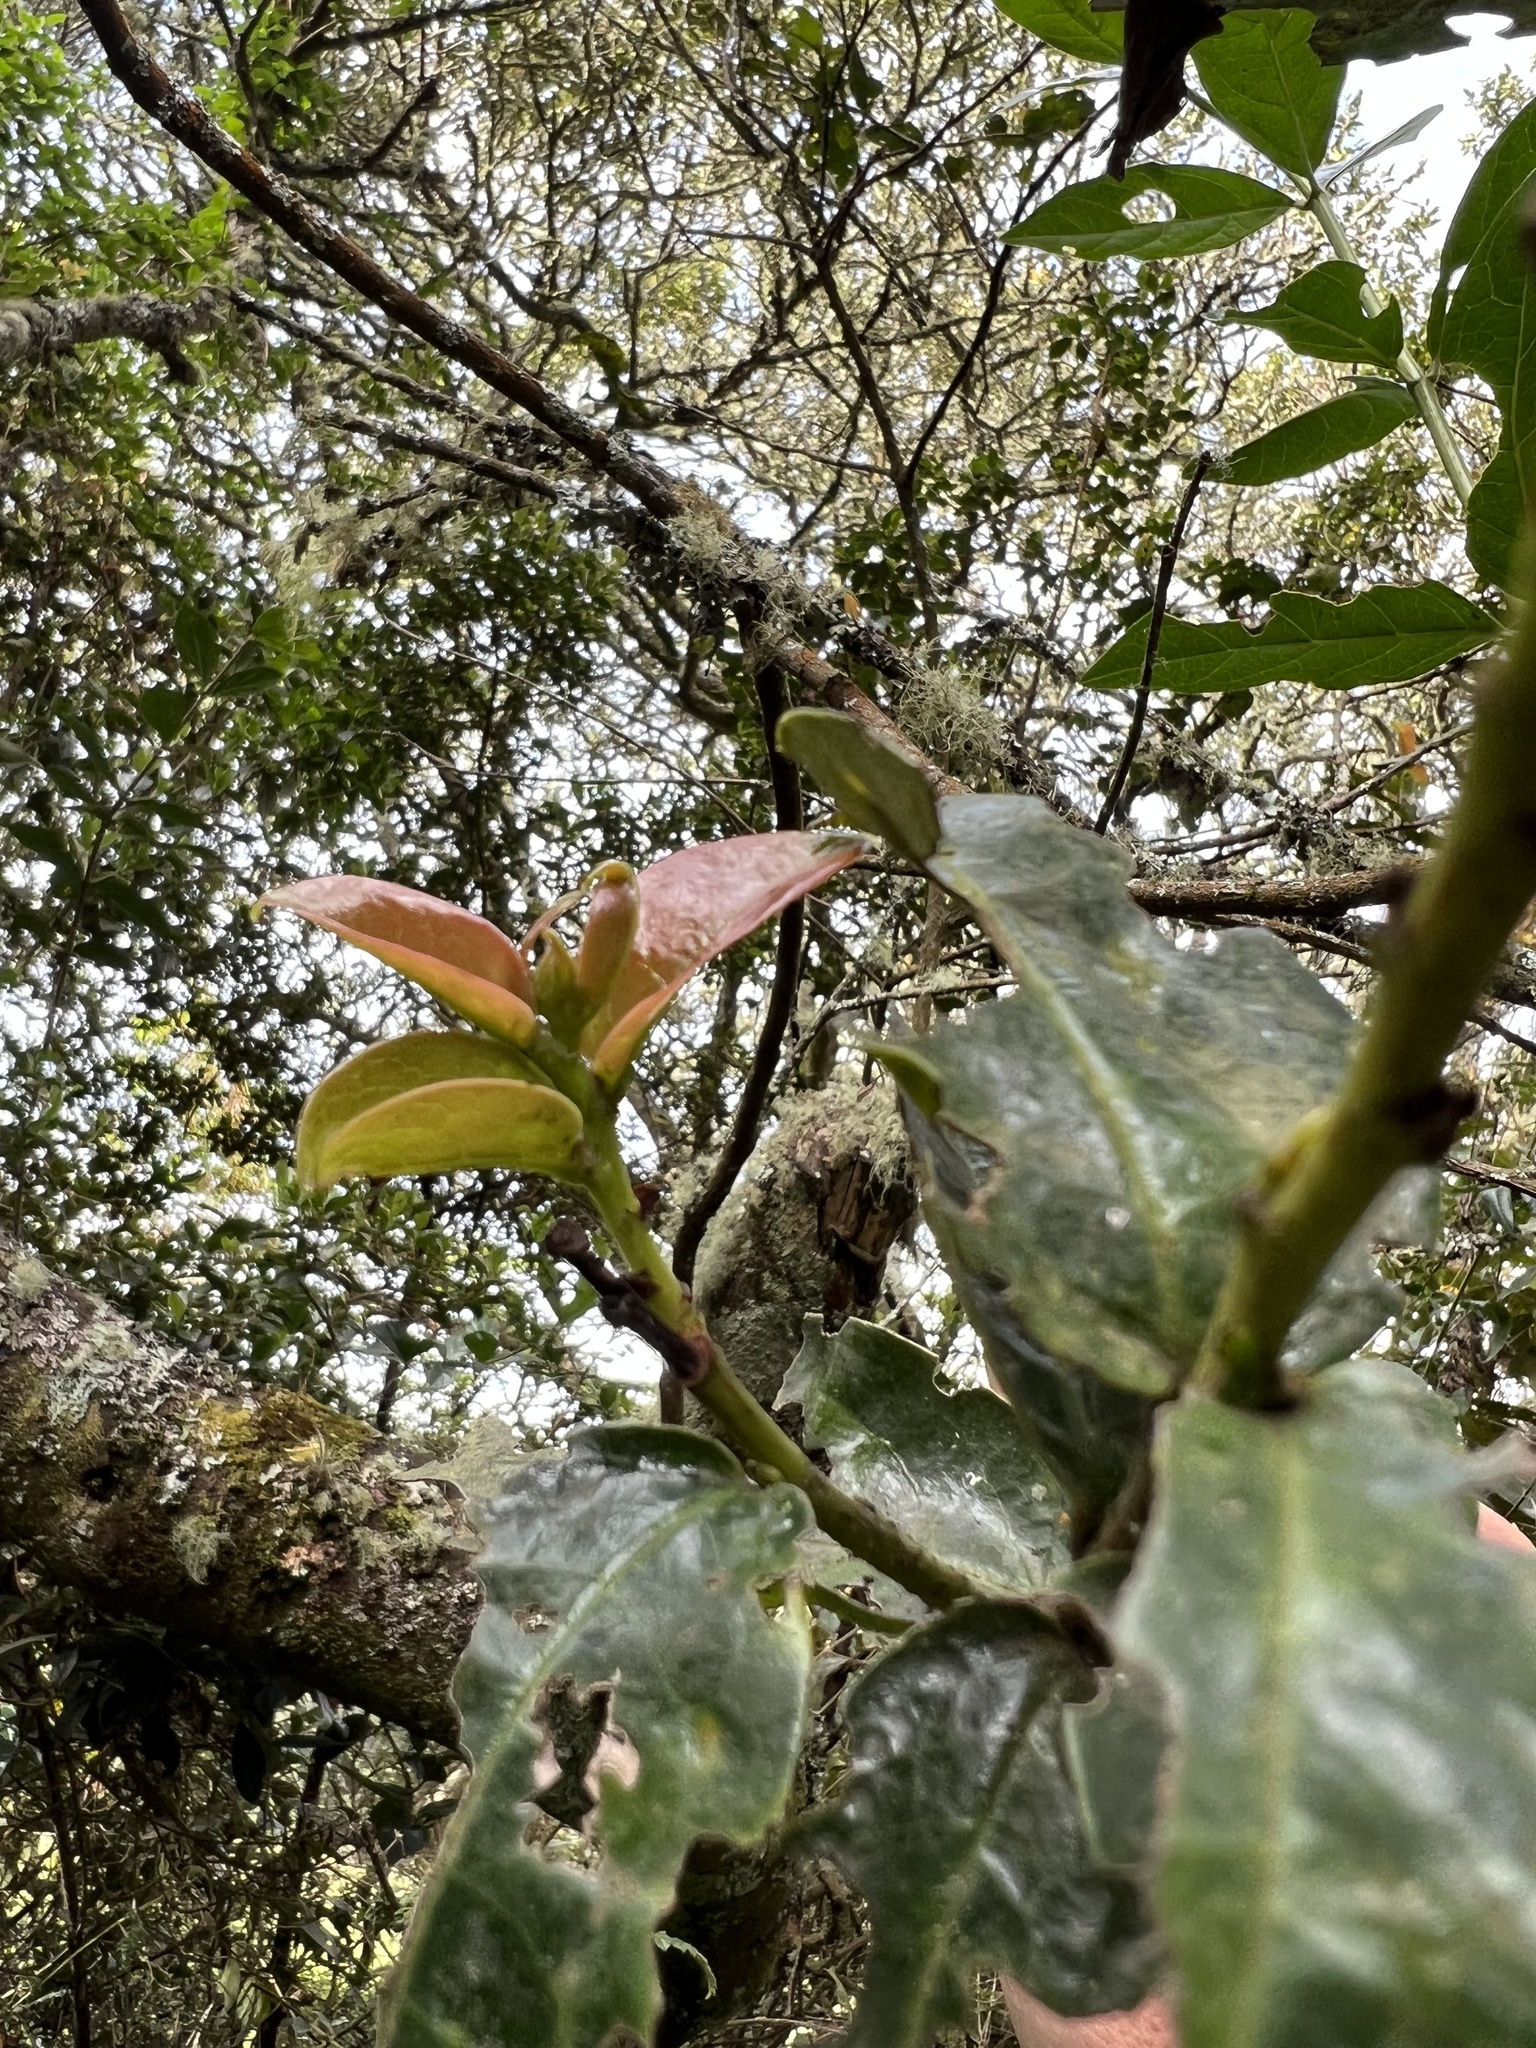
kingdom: Plantae
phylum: Tracheophyta
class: Magnoliopsida
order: Rosales
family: Rosaceae
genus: Prunus
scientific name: Prunus buxifolia
